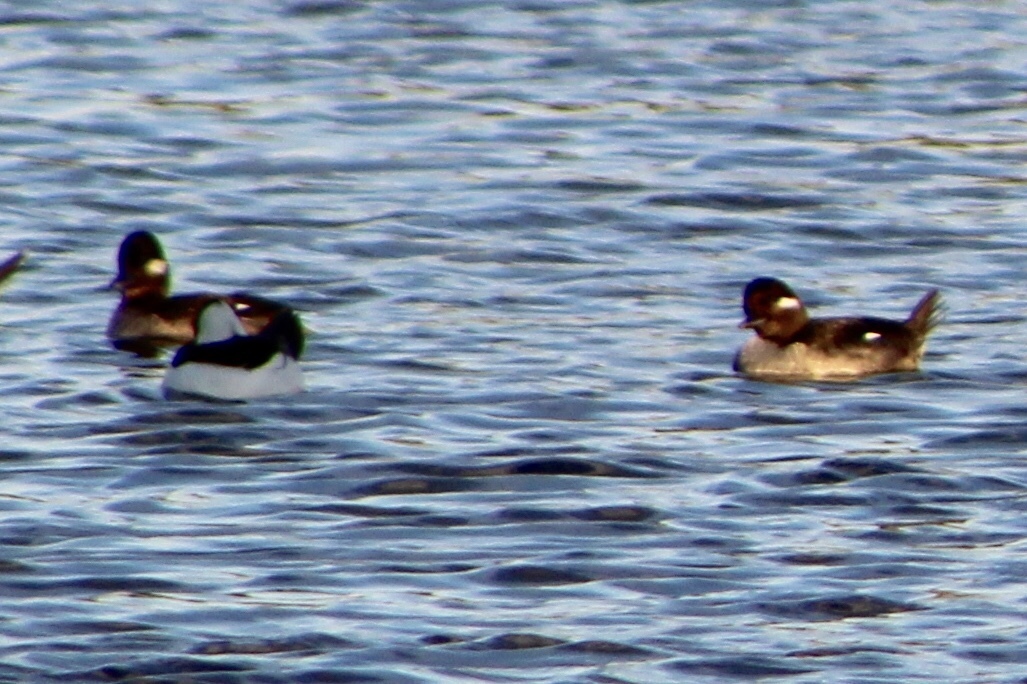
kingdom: Animalia
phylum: Chordata
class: Aves
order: Anseriformes
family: Anatidae
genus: Bucephala
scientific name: Bucephala albeola
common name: Bufflehead
